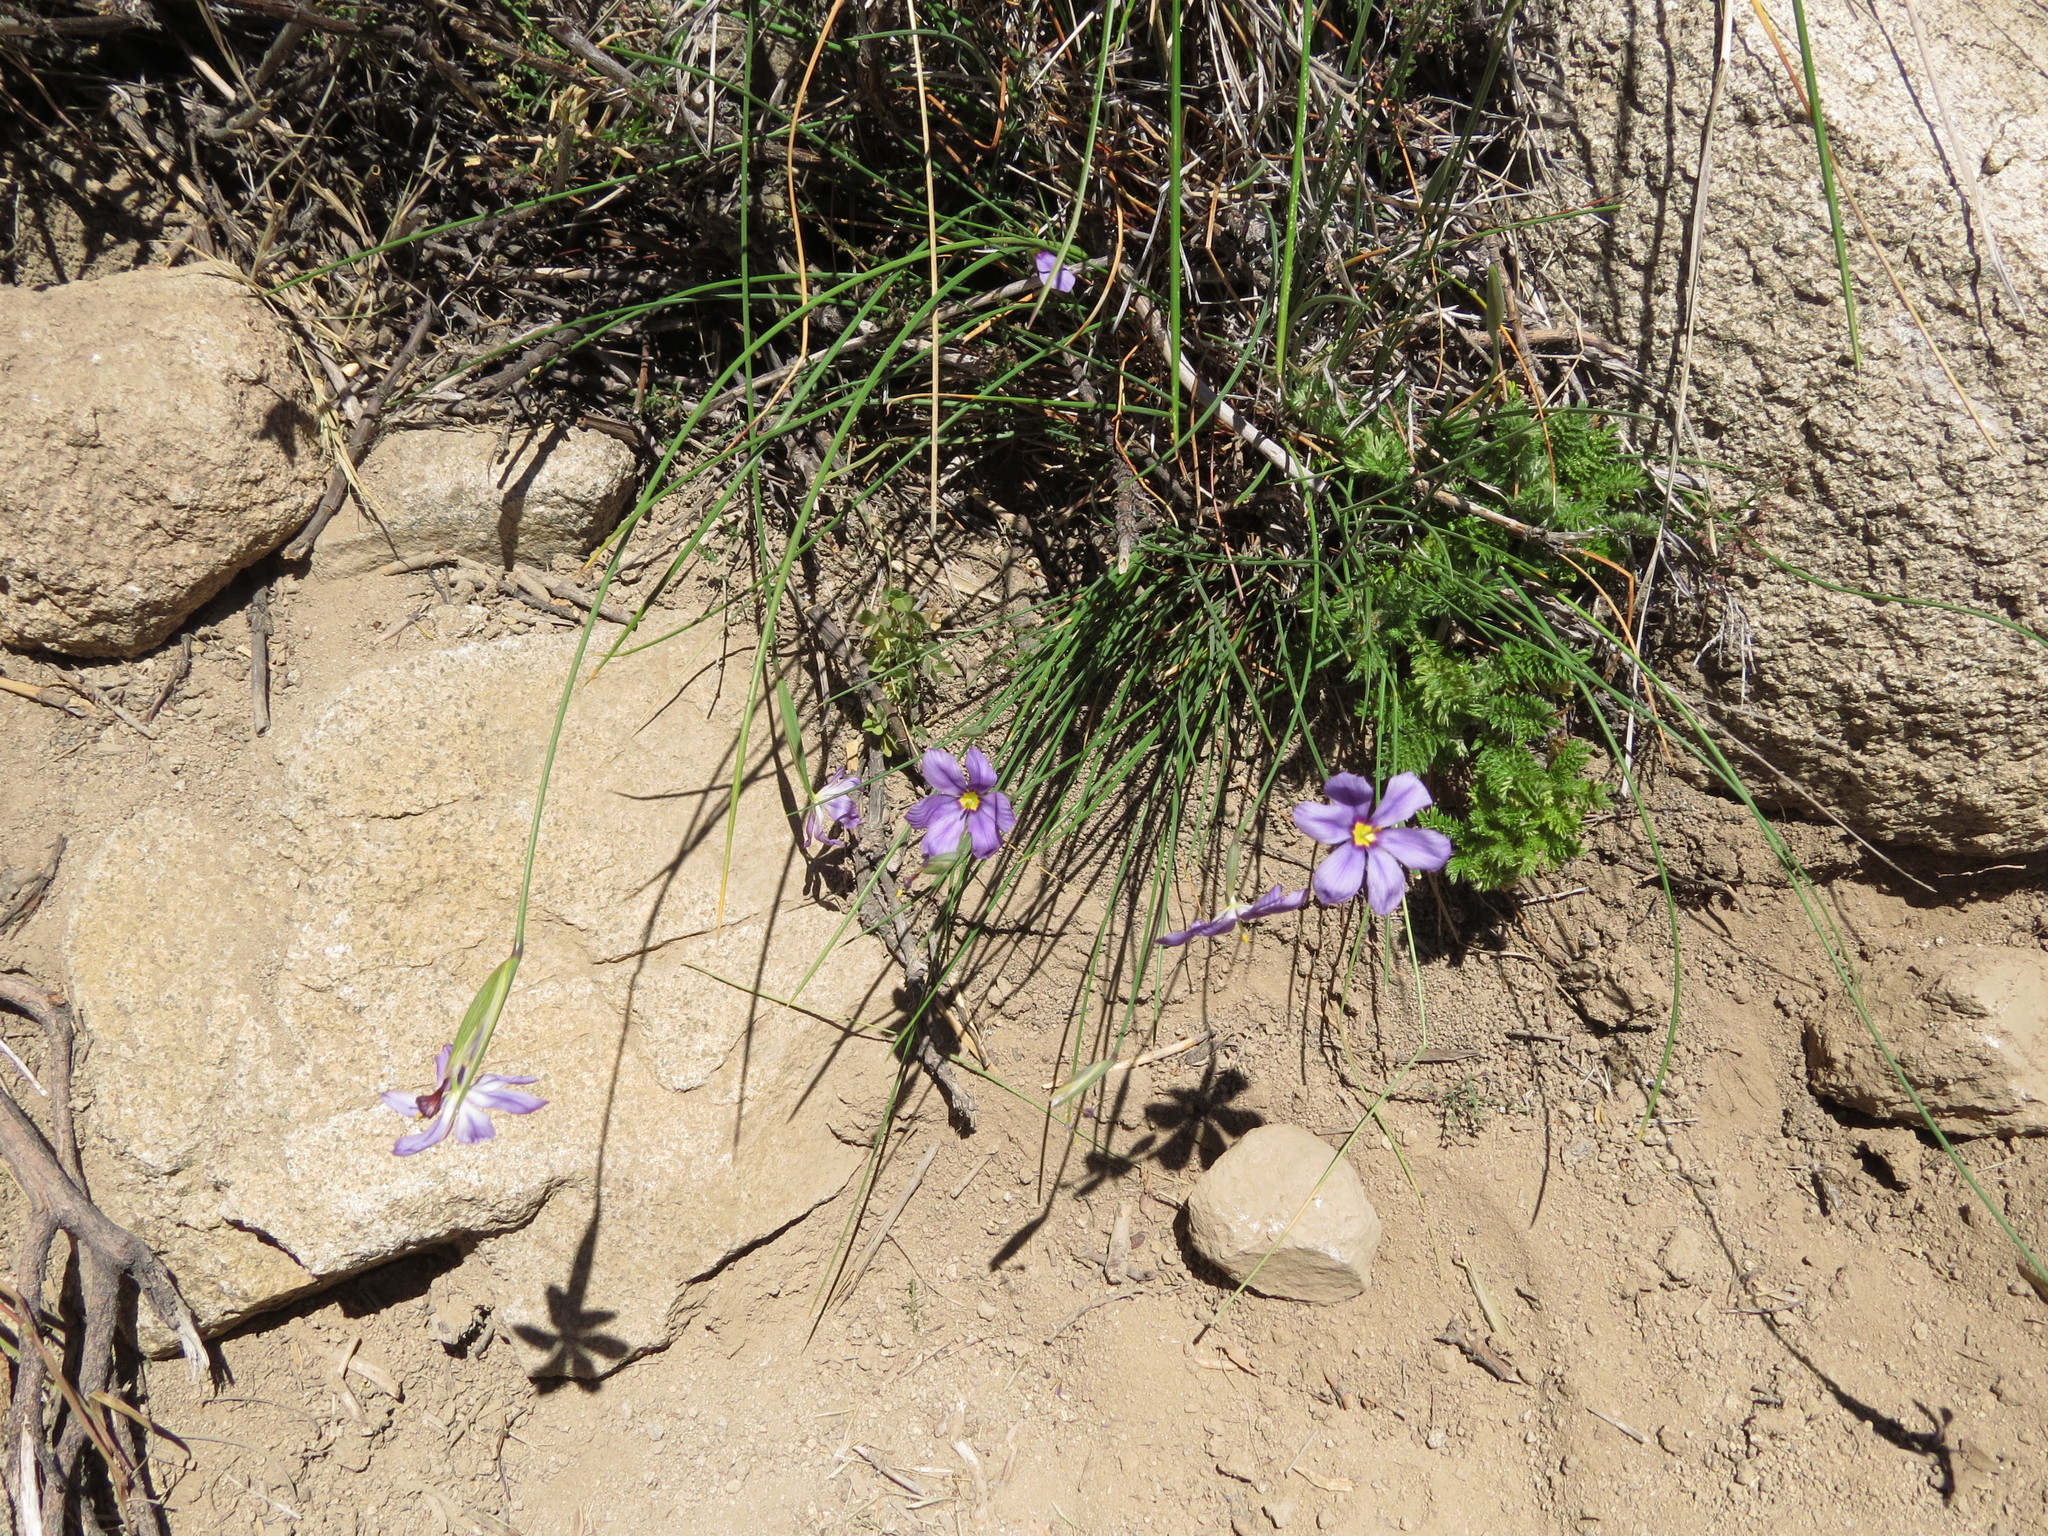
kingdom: Plantae
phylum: Tracheophyta
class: Liliopsida
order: Asparagales
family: Iridaceae
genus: Solenomelus
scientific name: Solenomelus segethi
